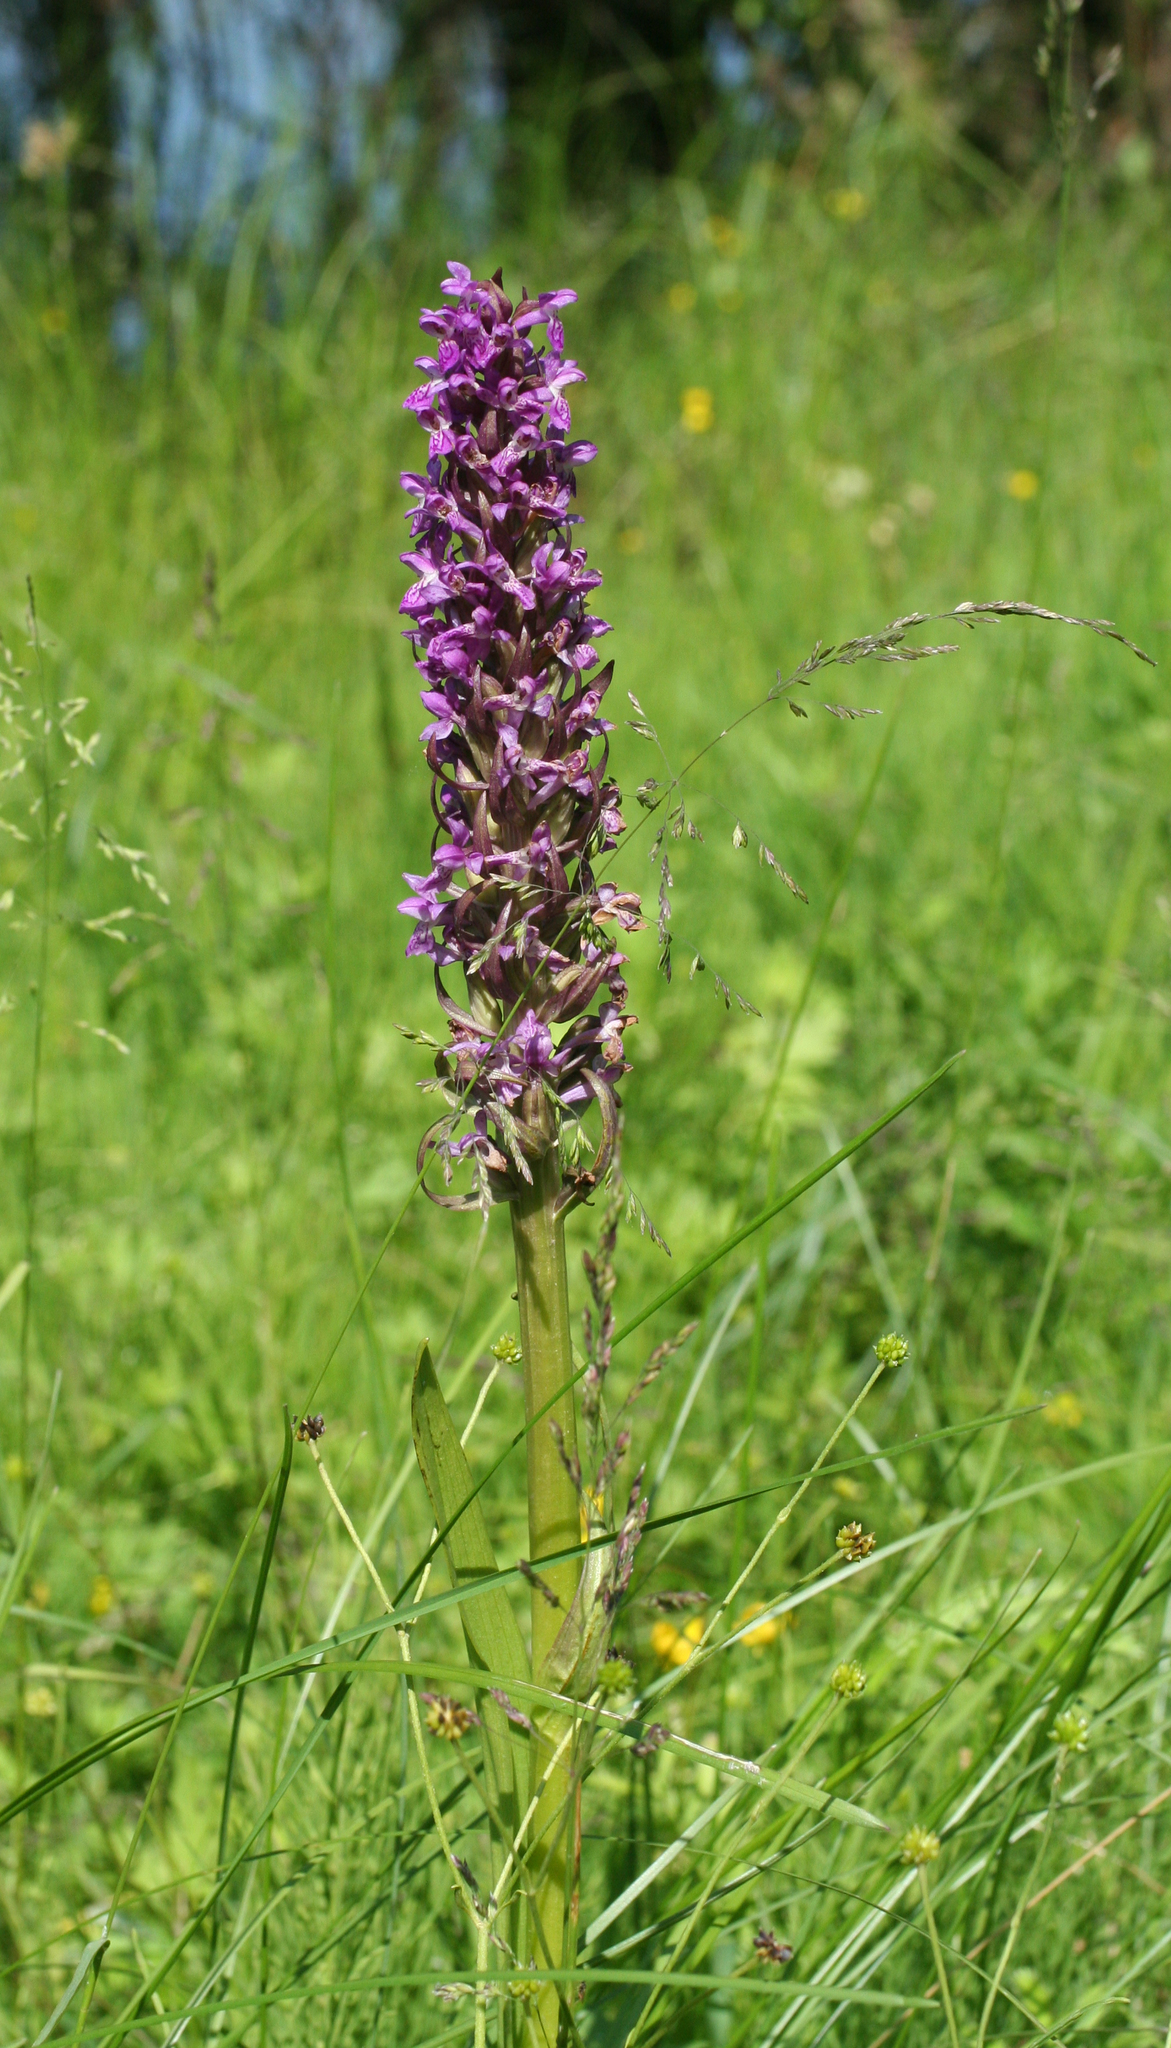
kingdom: Plantae
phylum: Tracheophyta
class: Liliopsida
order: Asparagales
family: Orchidaceae
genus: Dactylorhiza
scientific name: Dactylorhiza incarnata
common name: Early marsh-orchid
